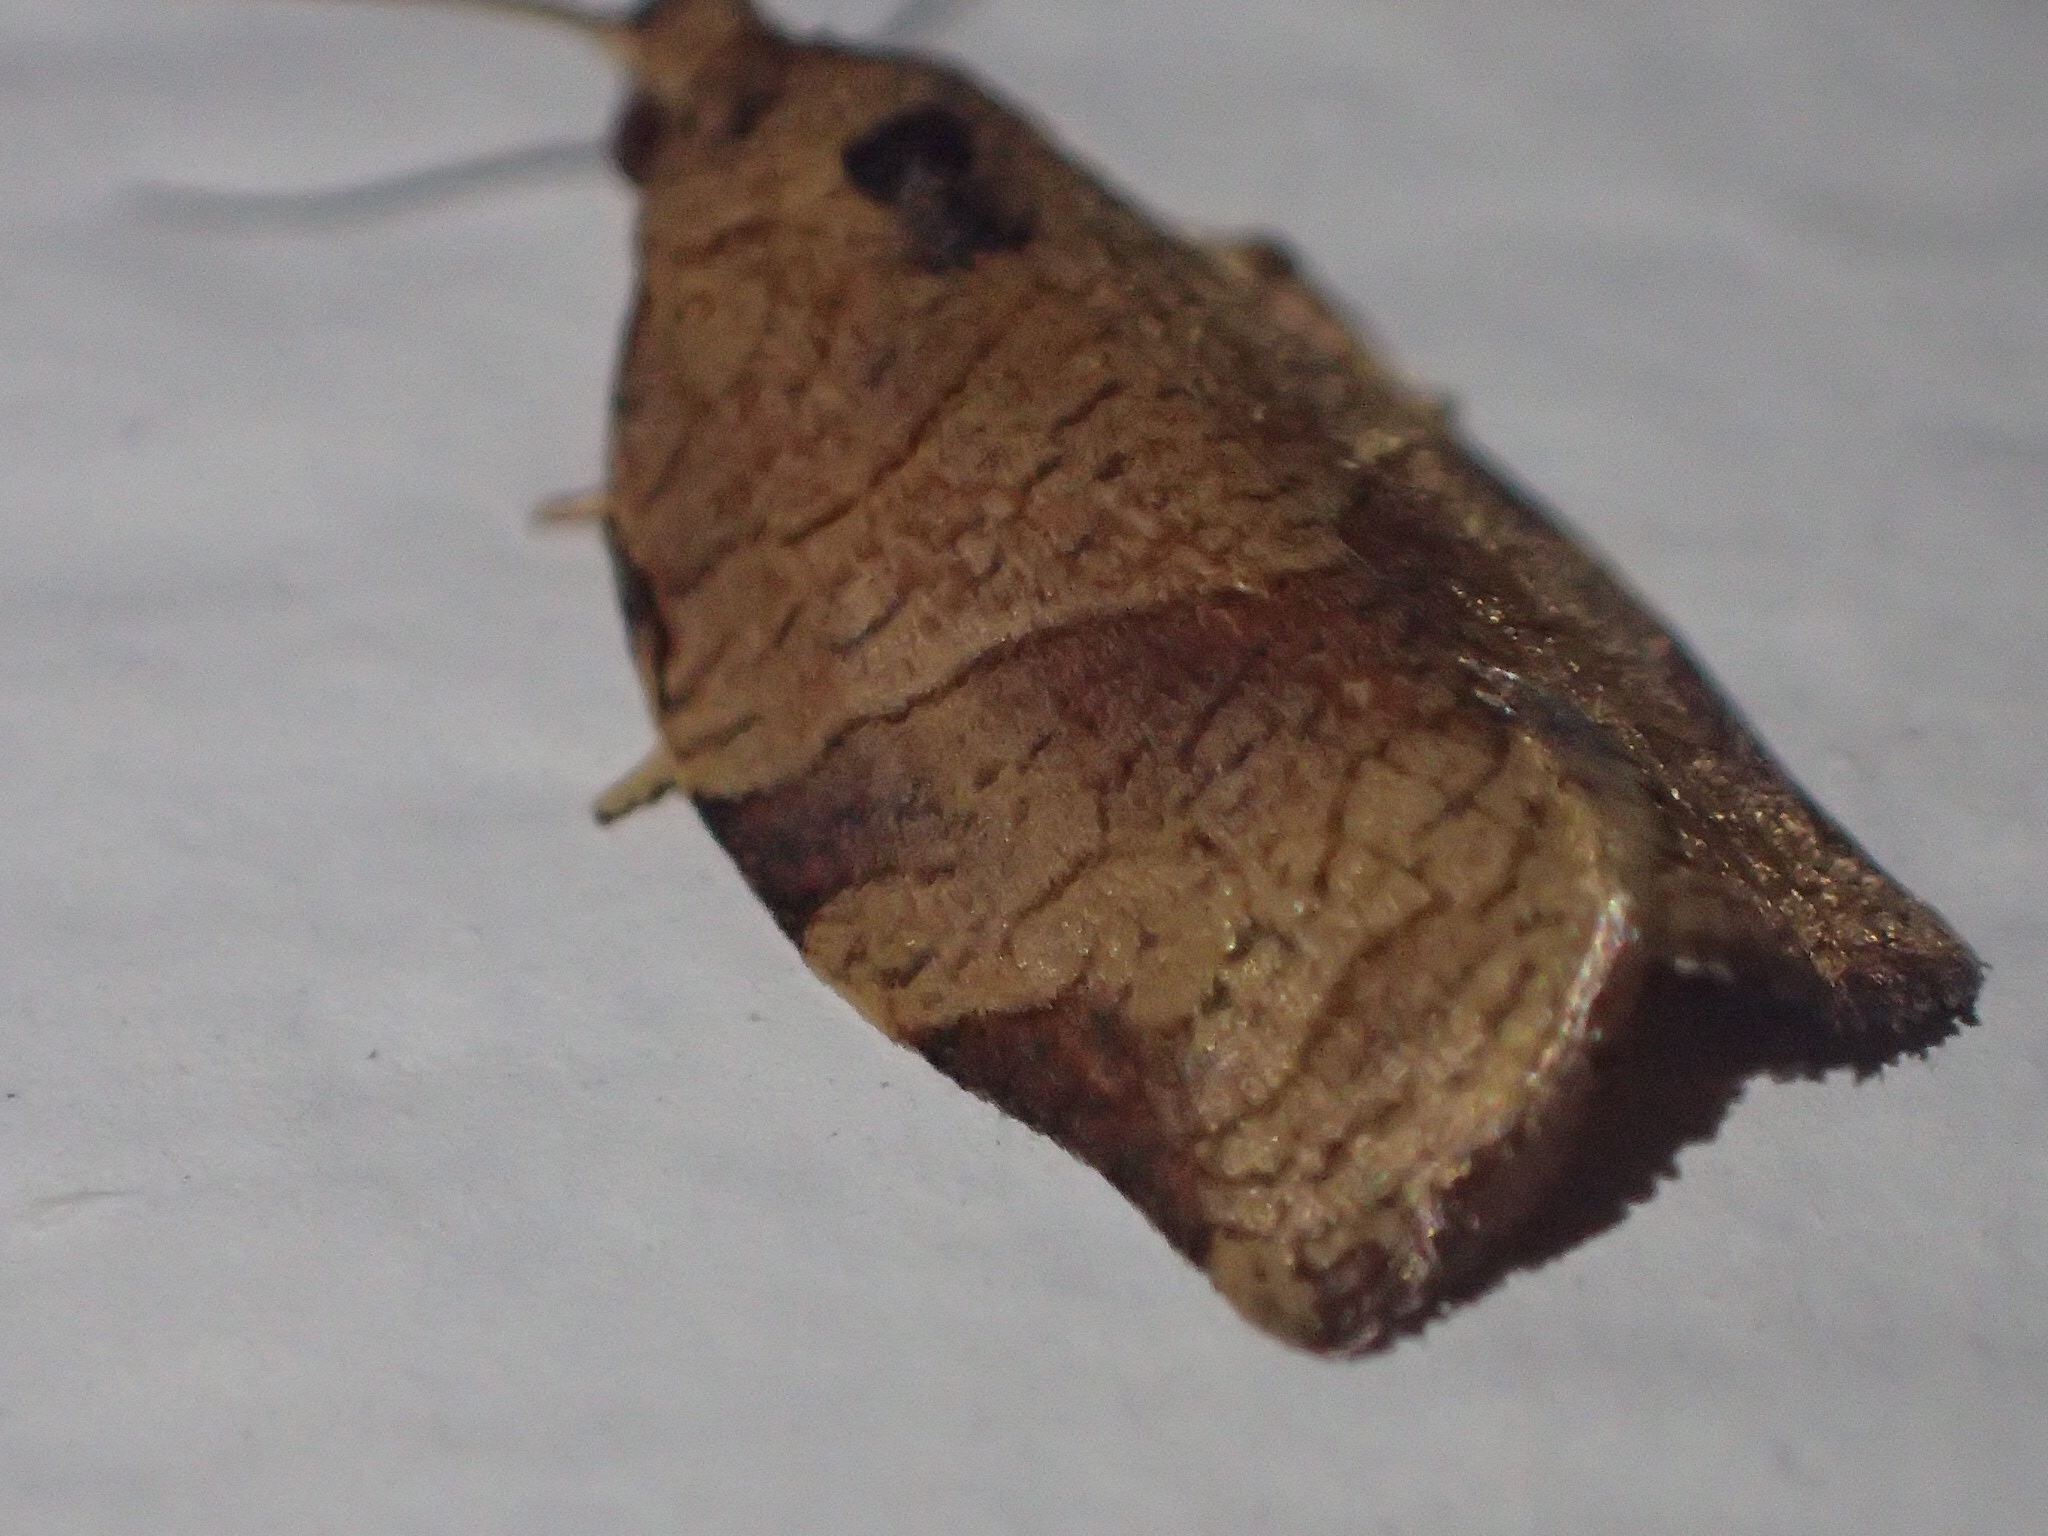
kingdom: Animalia
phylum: Arthropoda
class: Insecta
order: Lepidoptera
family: Tortricidae
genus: Choristoneura
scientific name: Choristoneura rosaceana
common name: Oblique-banded leafroller moth
